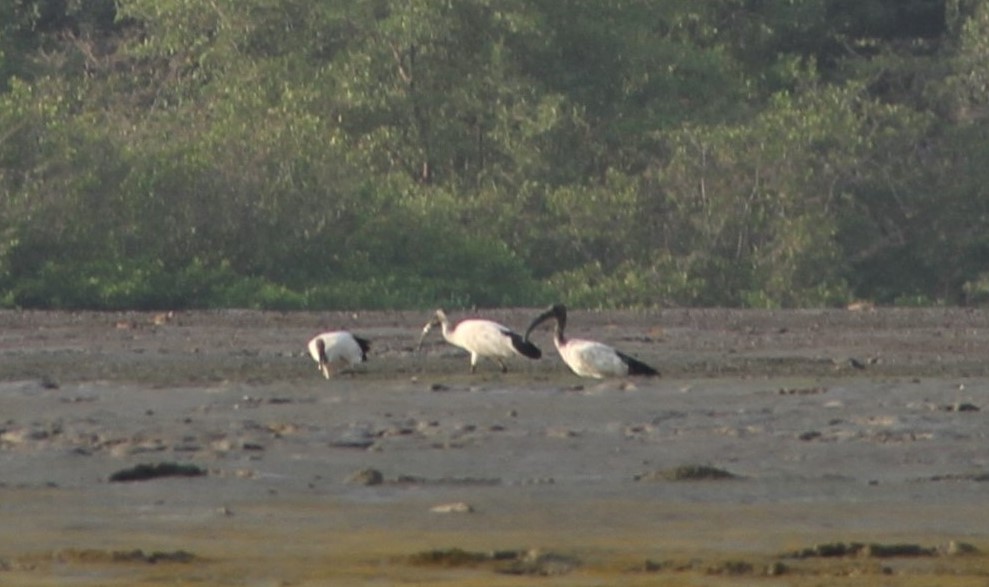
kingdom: Animalia
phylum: Chordata
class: Aves
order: Pelecaniformes
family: Threskiornithidae
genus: Threskiornis
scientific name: Threskiornis aethiopicus
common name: Sacred ibis
